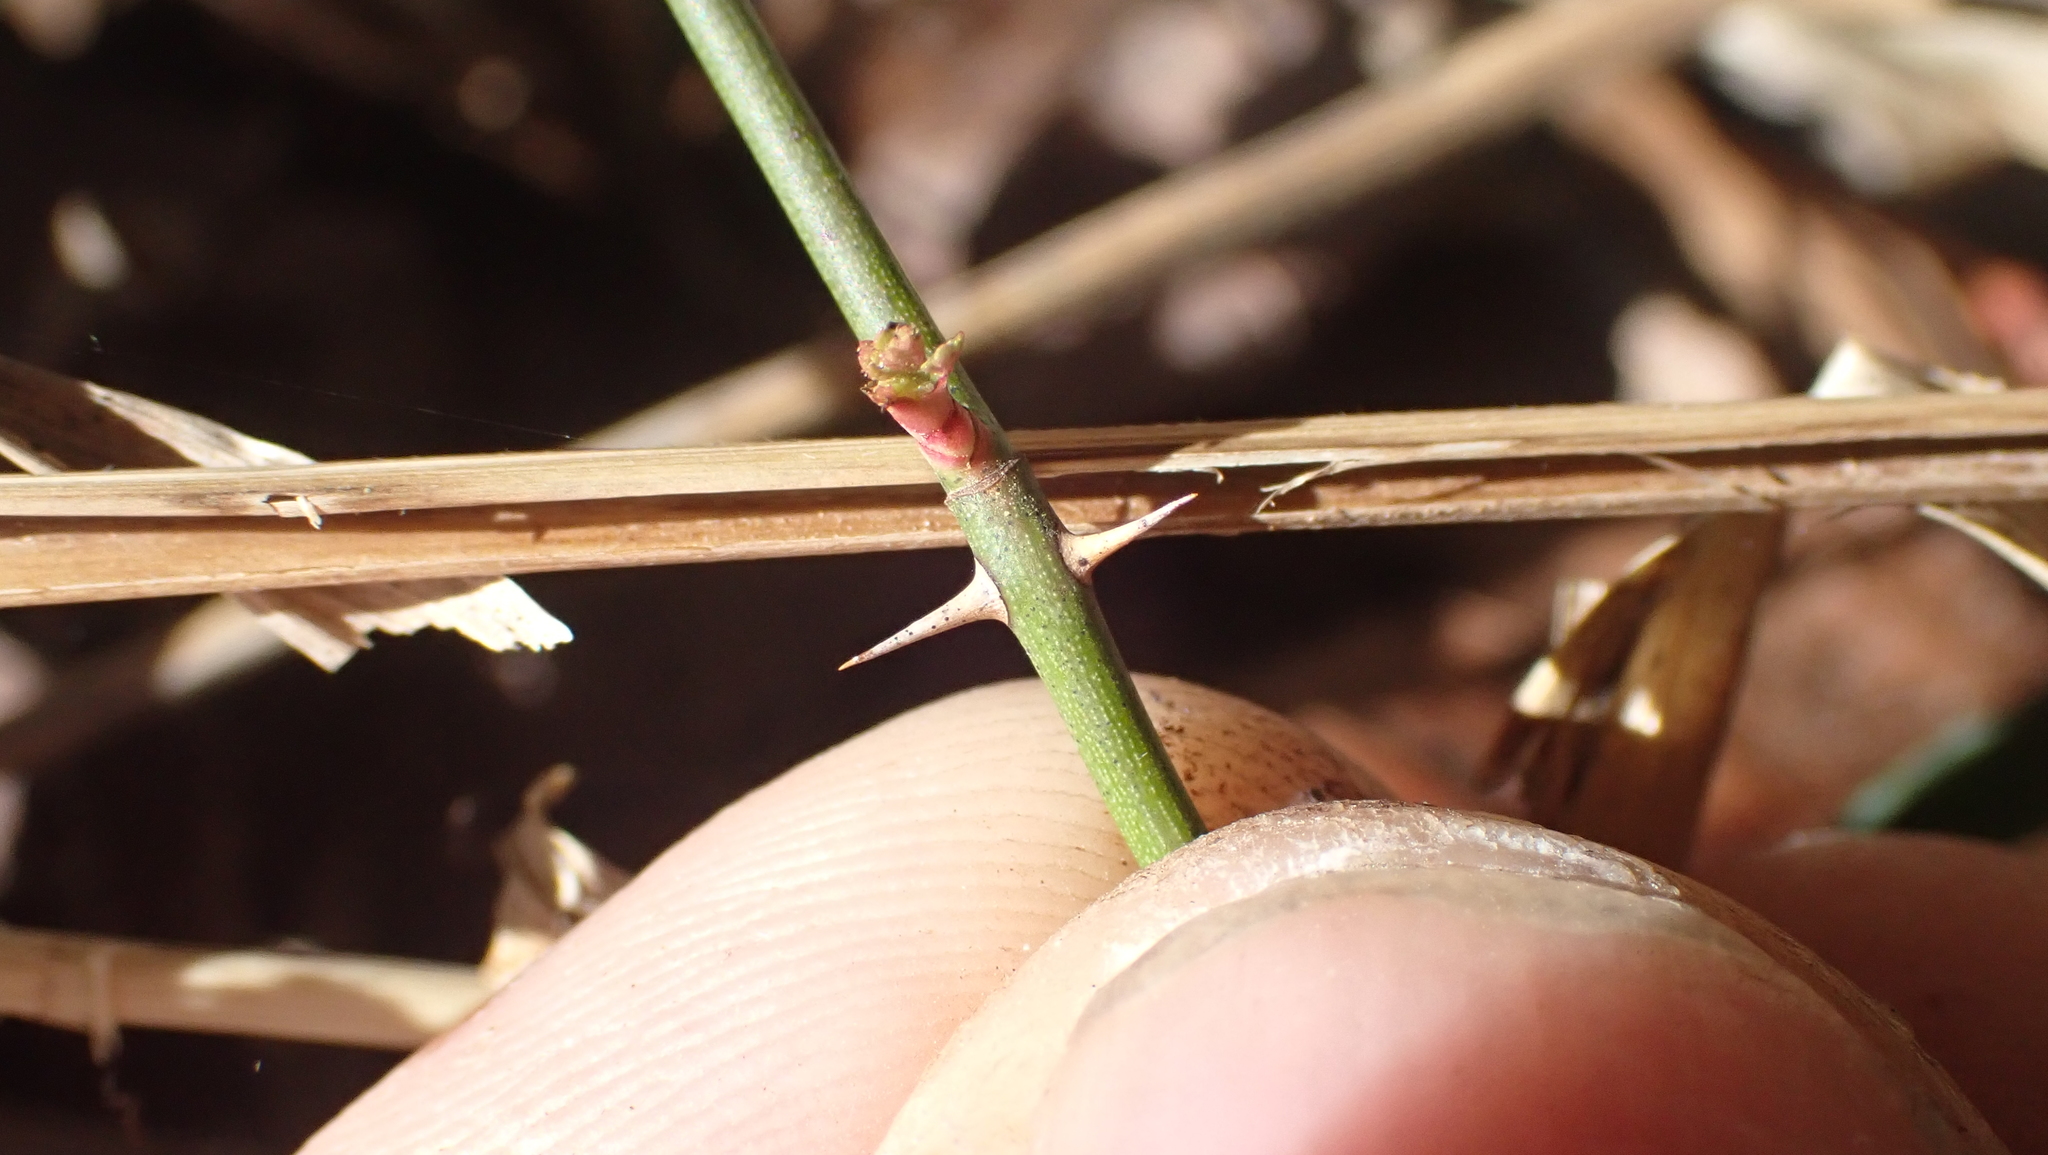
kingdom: Plantae
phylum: Tracheophyta
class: Magnoliopsida
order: Rosales
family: Rosaceae
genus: Rosa
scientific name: Rosa multiflora
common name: Multiflora rose
